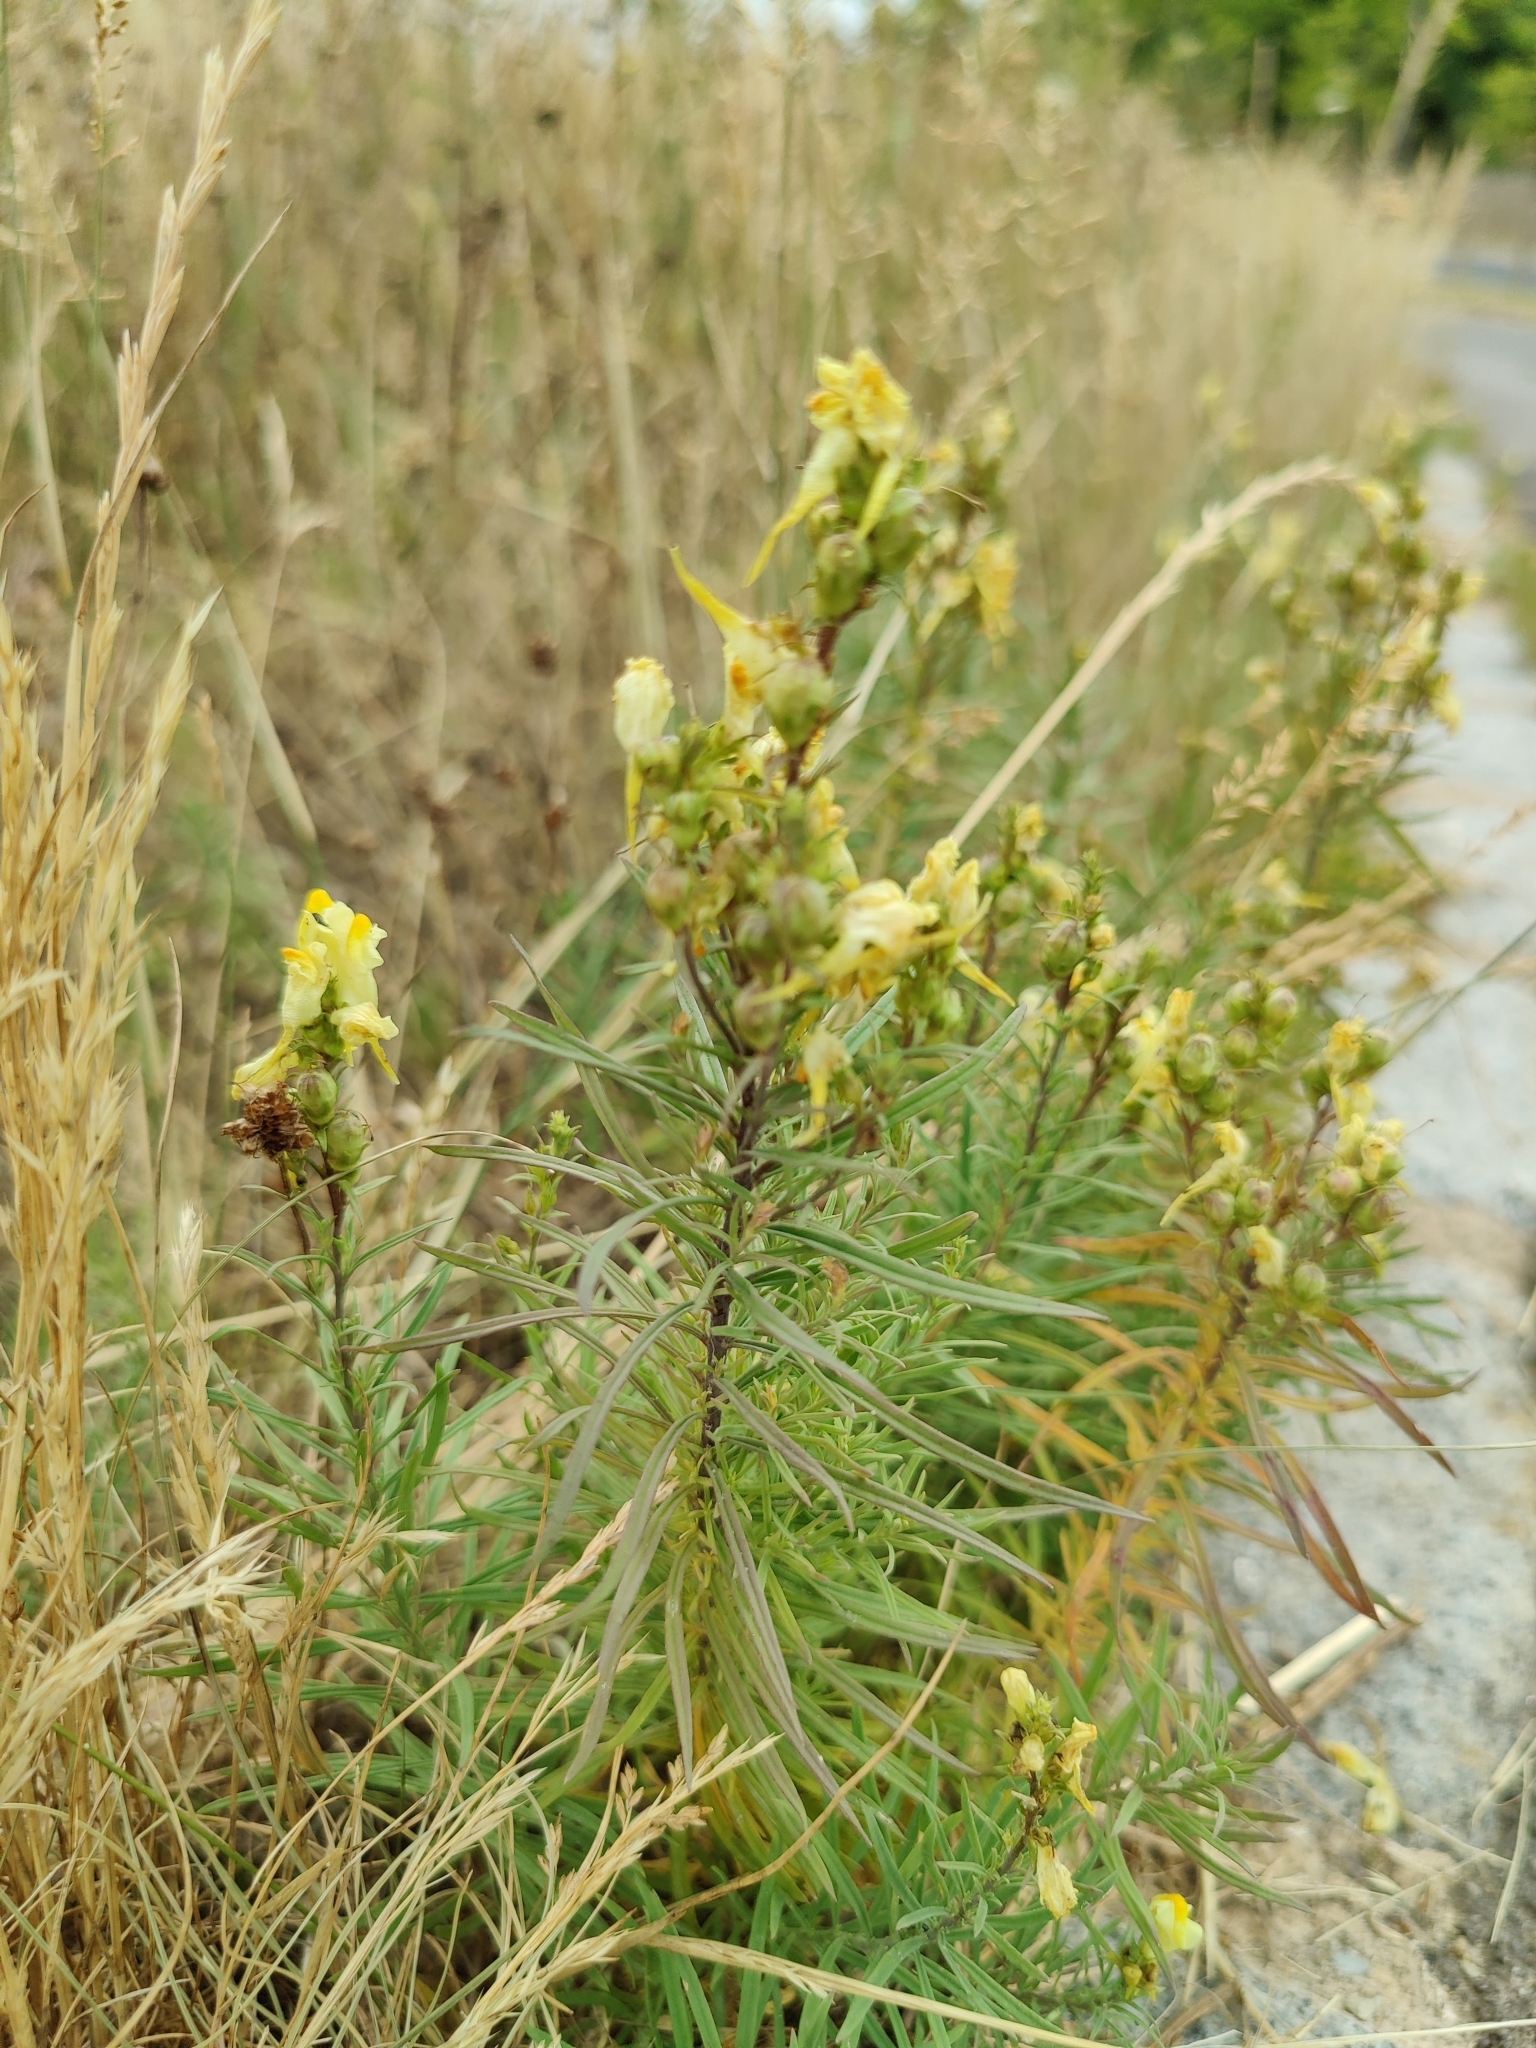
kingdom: Plantae
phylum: Tracheophyta
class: Magnoliopsida
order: Lamiales
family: Plantaginaceae
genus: Linaria
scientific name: Linaria vulgaris
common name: Butter and eggs
